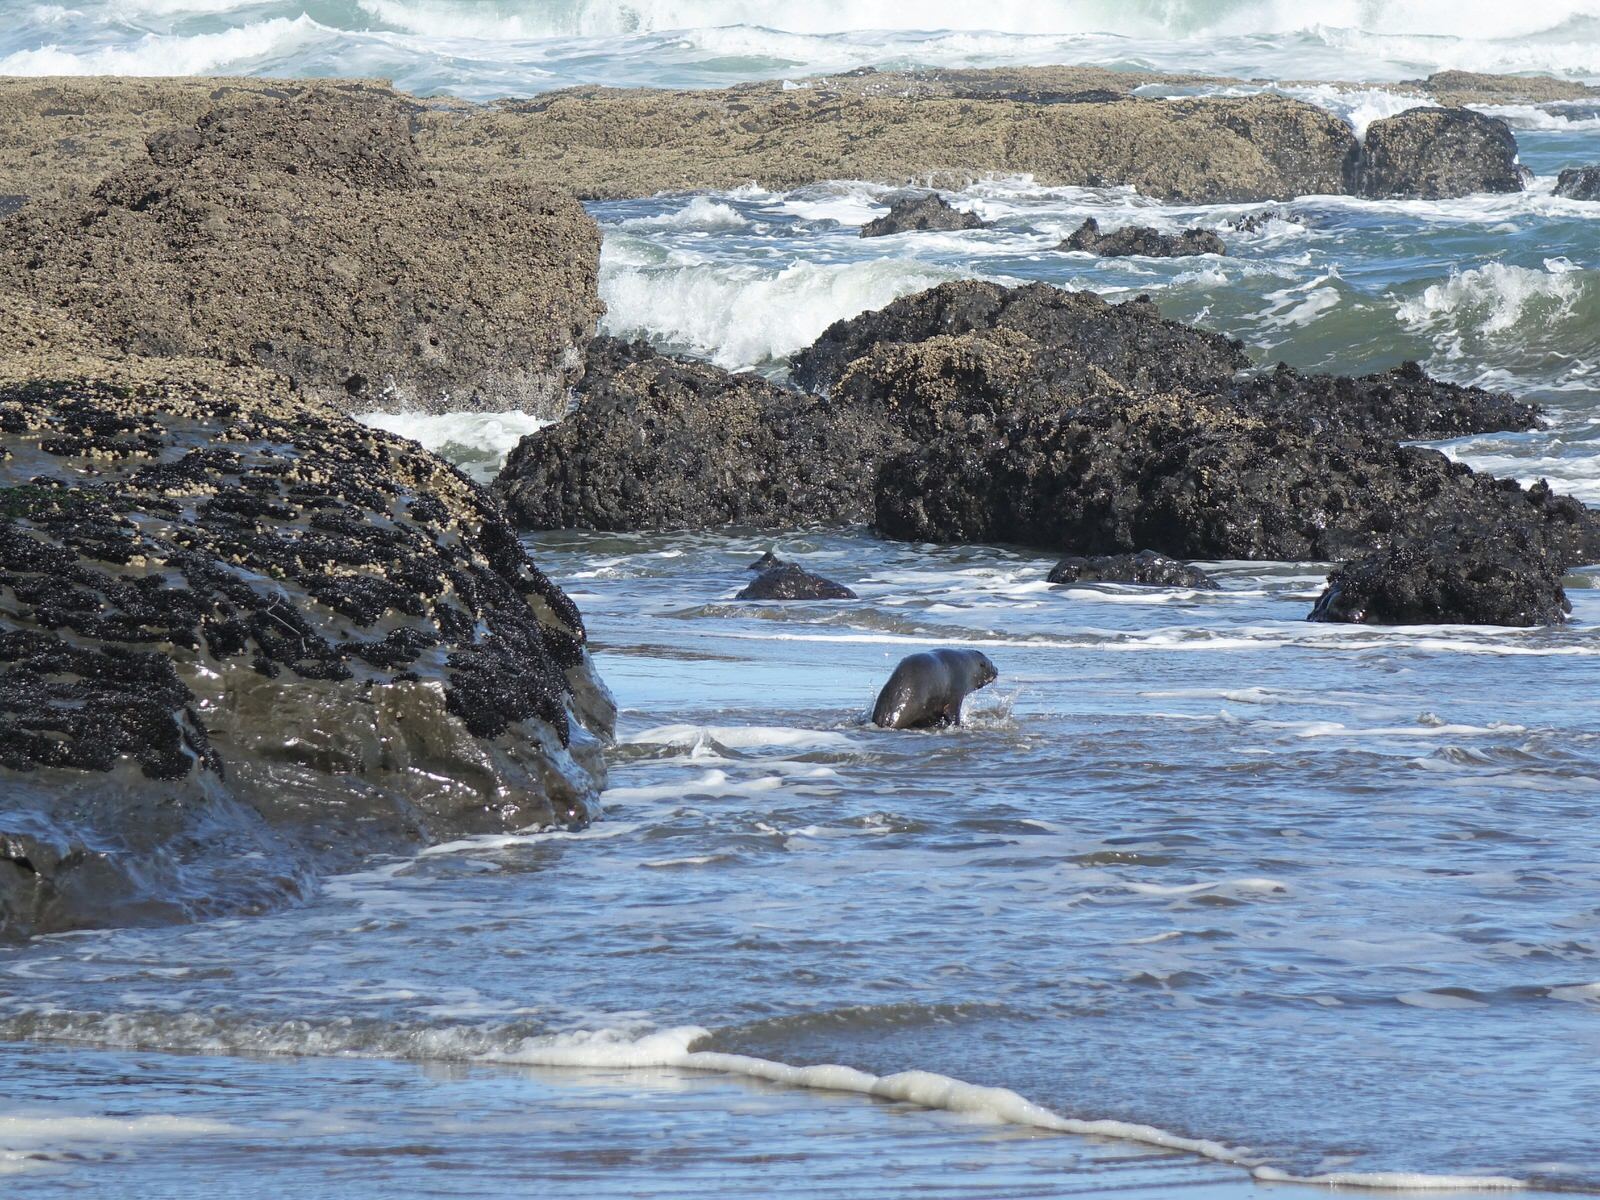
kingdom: Animalia
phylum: Chordata
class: Mammalia
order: Carnivora
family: Otariidae
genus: Arctocephalus
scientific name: Arctocephalus forsteri
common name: New zealand fur seal
